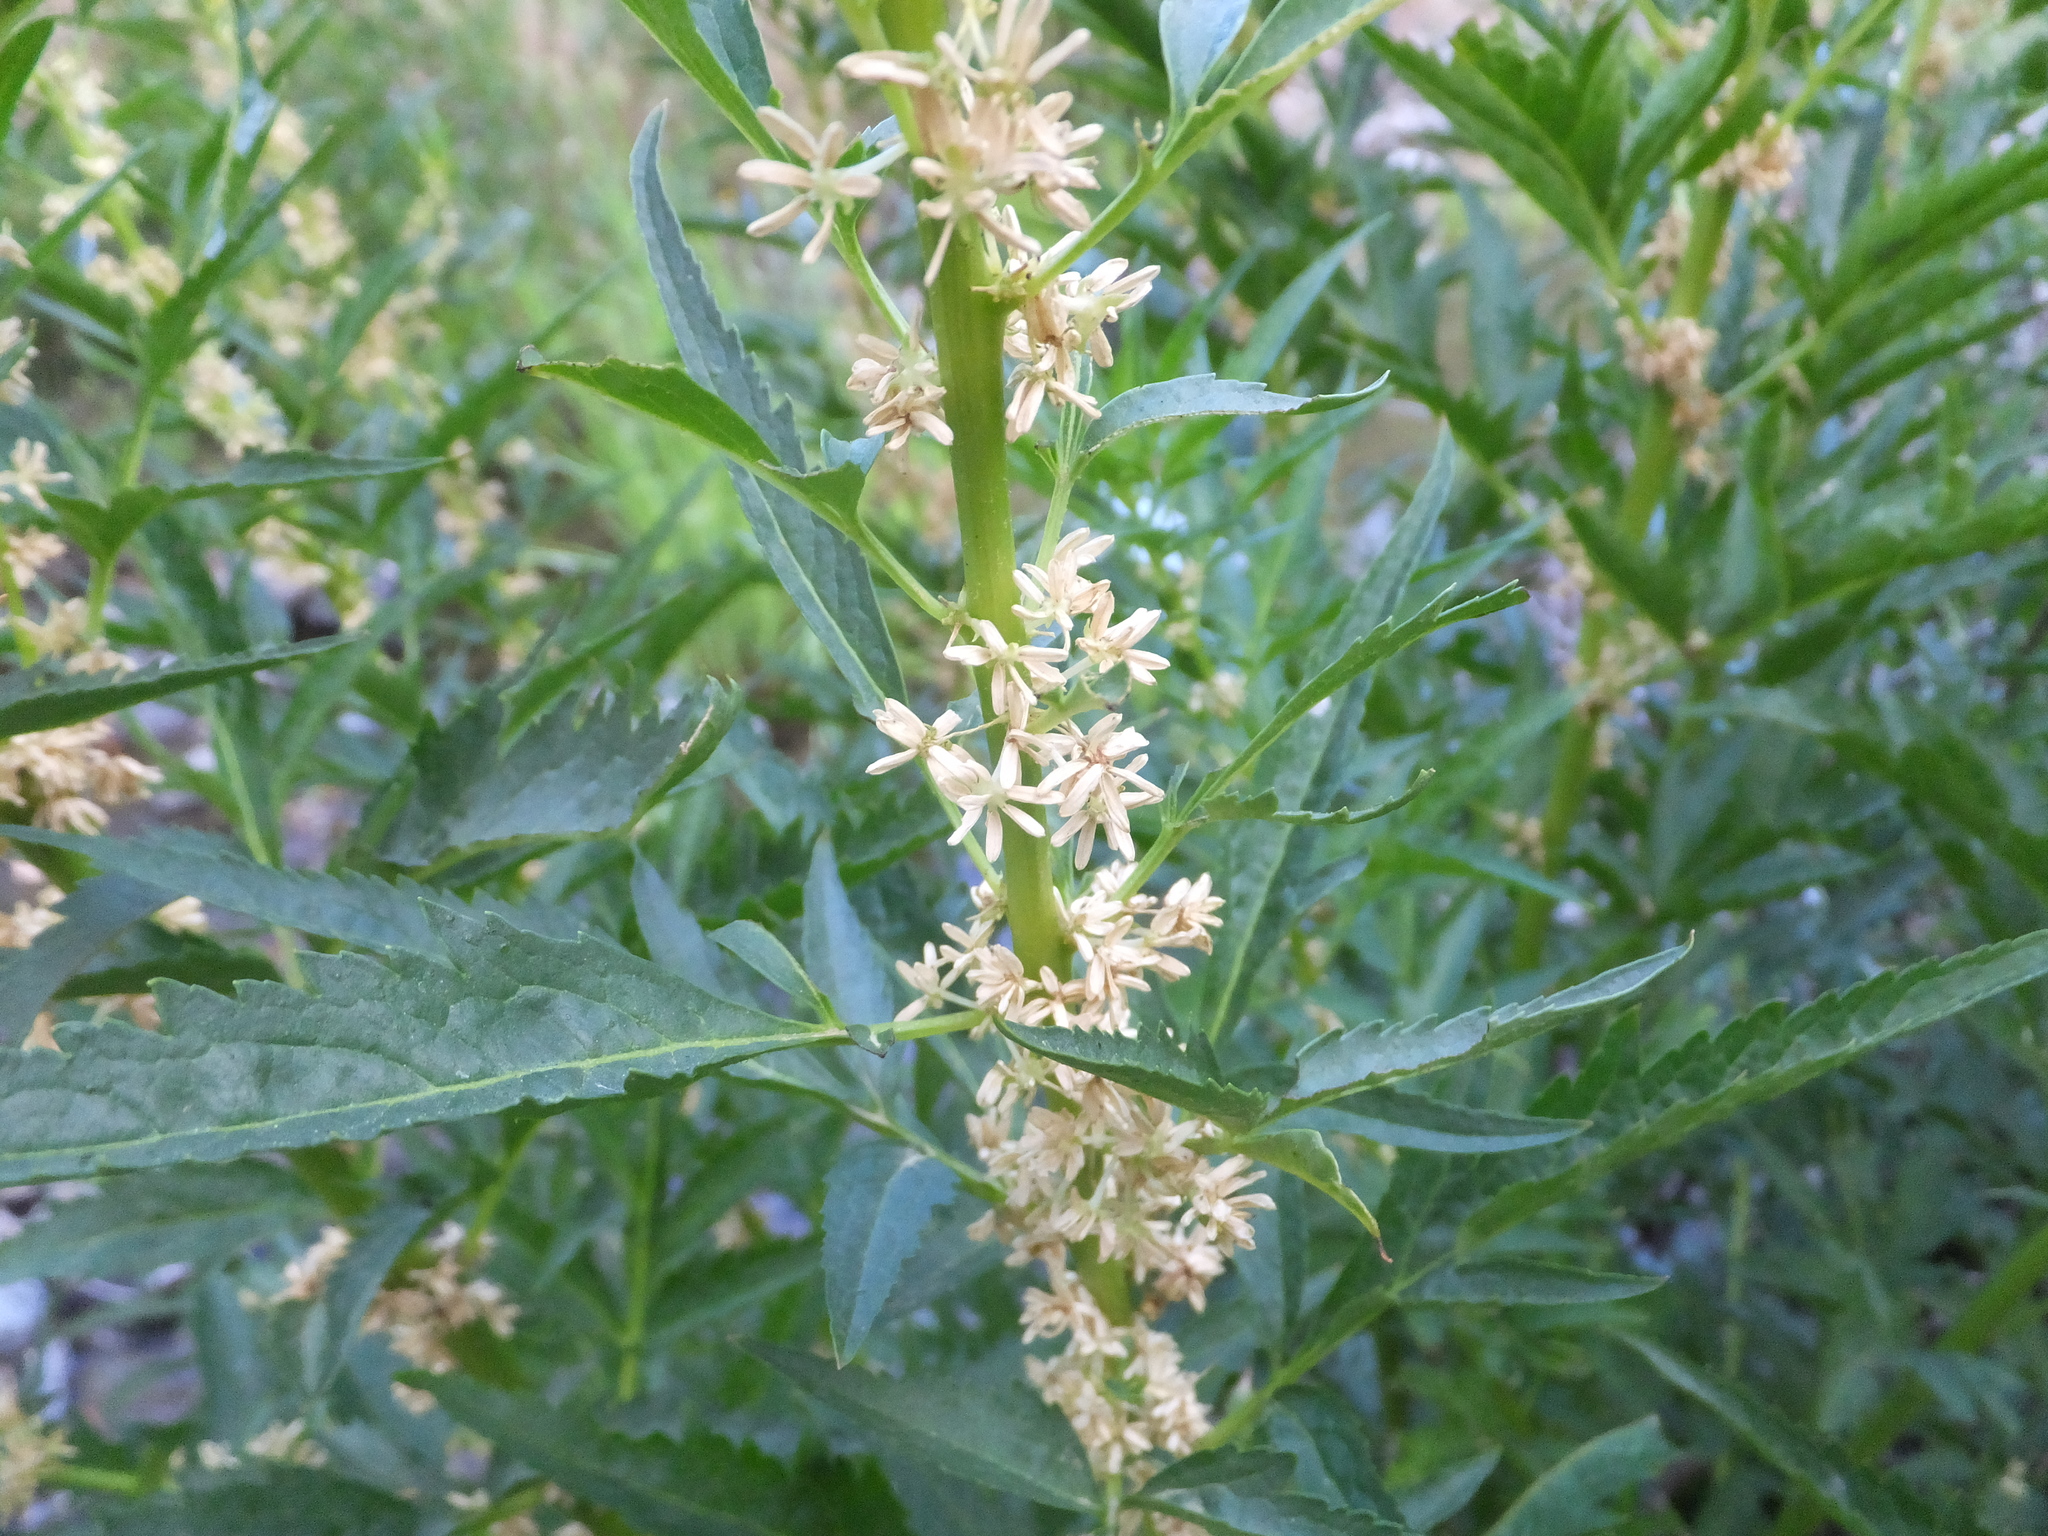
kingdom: Plantae
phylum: Tracheophyta
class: Magnoliopsida
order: Cucurbitales
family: Datiscaceae
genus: Datisca
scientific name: Datisca glomerata
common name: Durango-root
